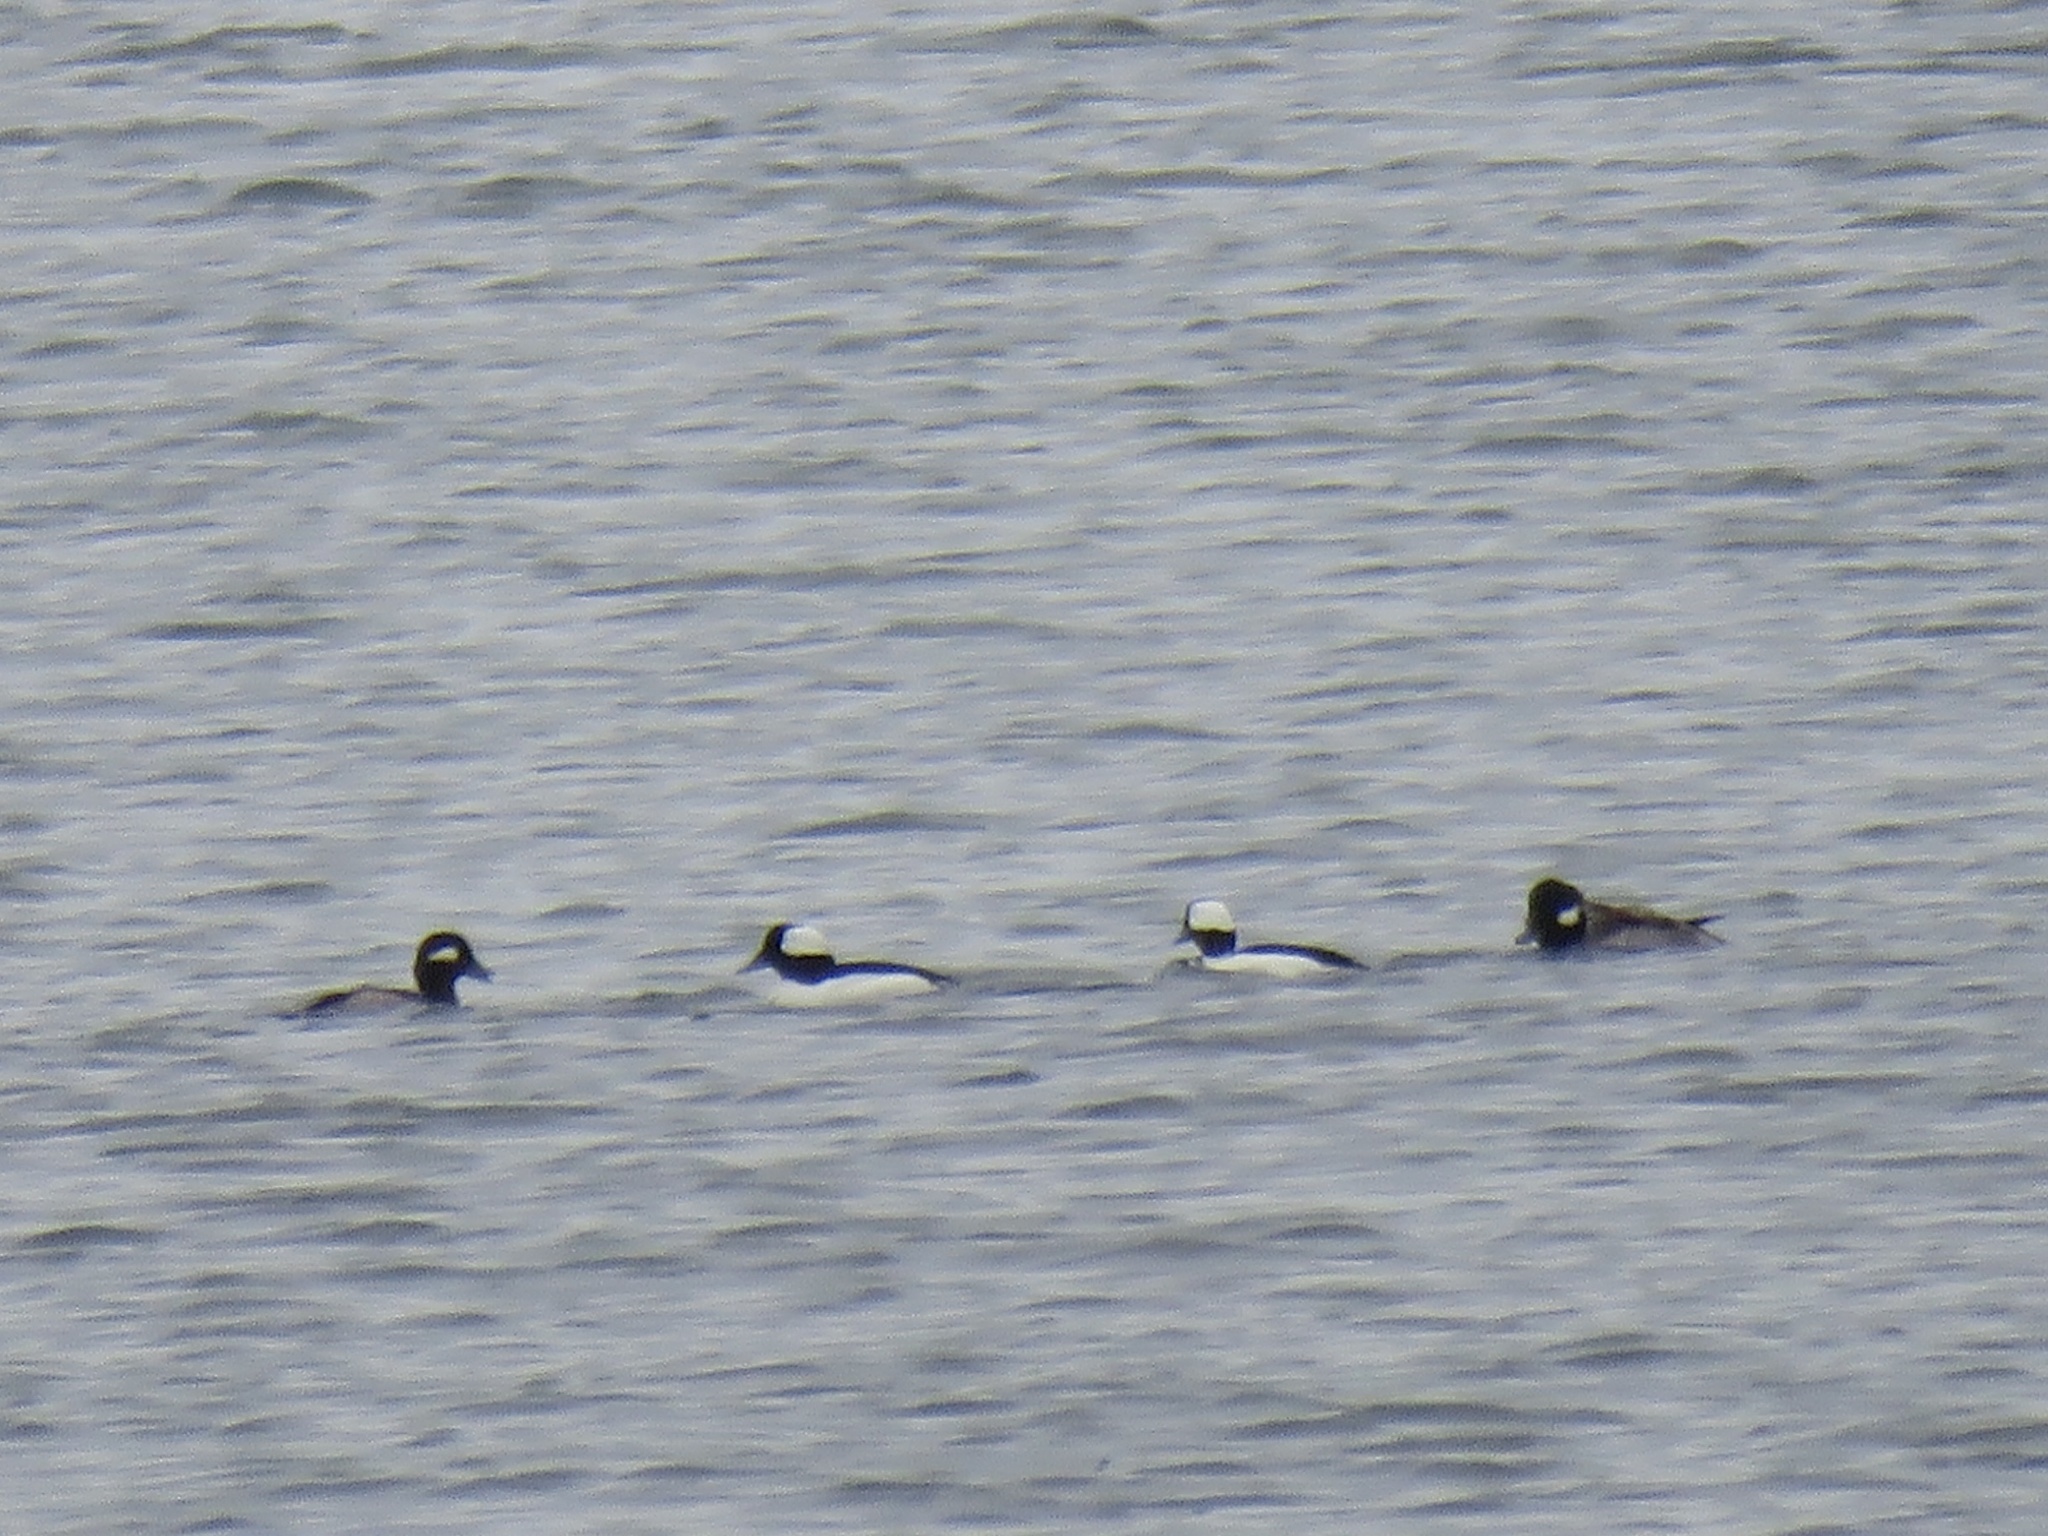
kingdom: Animalia
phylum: Chordata
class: Aves
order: Anseriformes
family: Anatidae
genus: Bucephala
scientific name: Bucephala albeola
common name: Bufflehead
